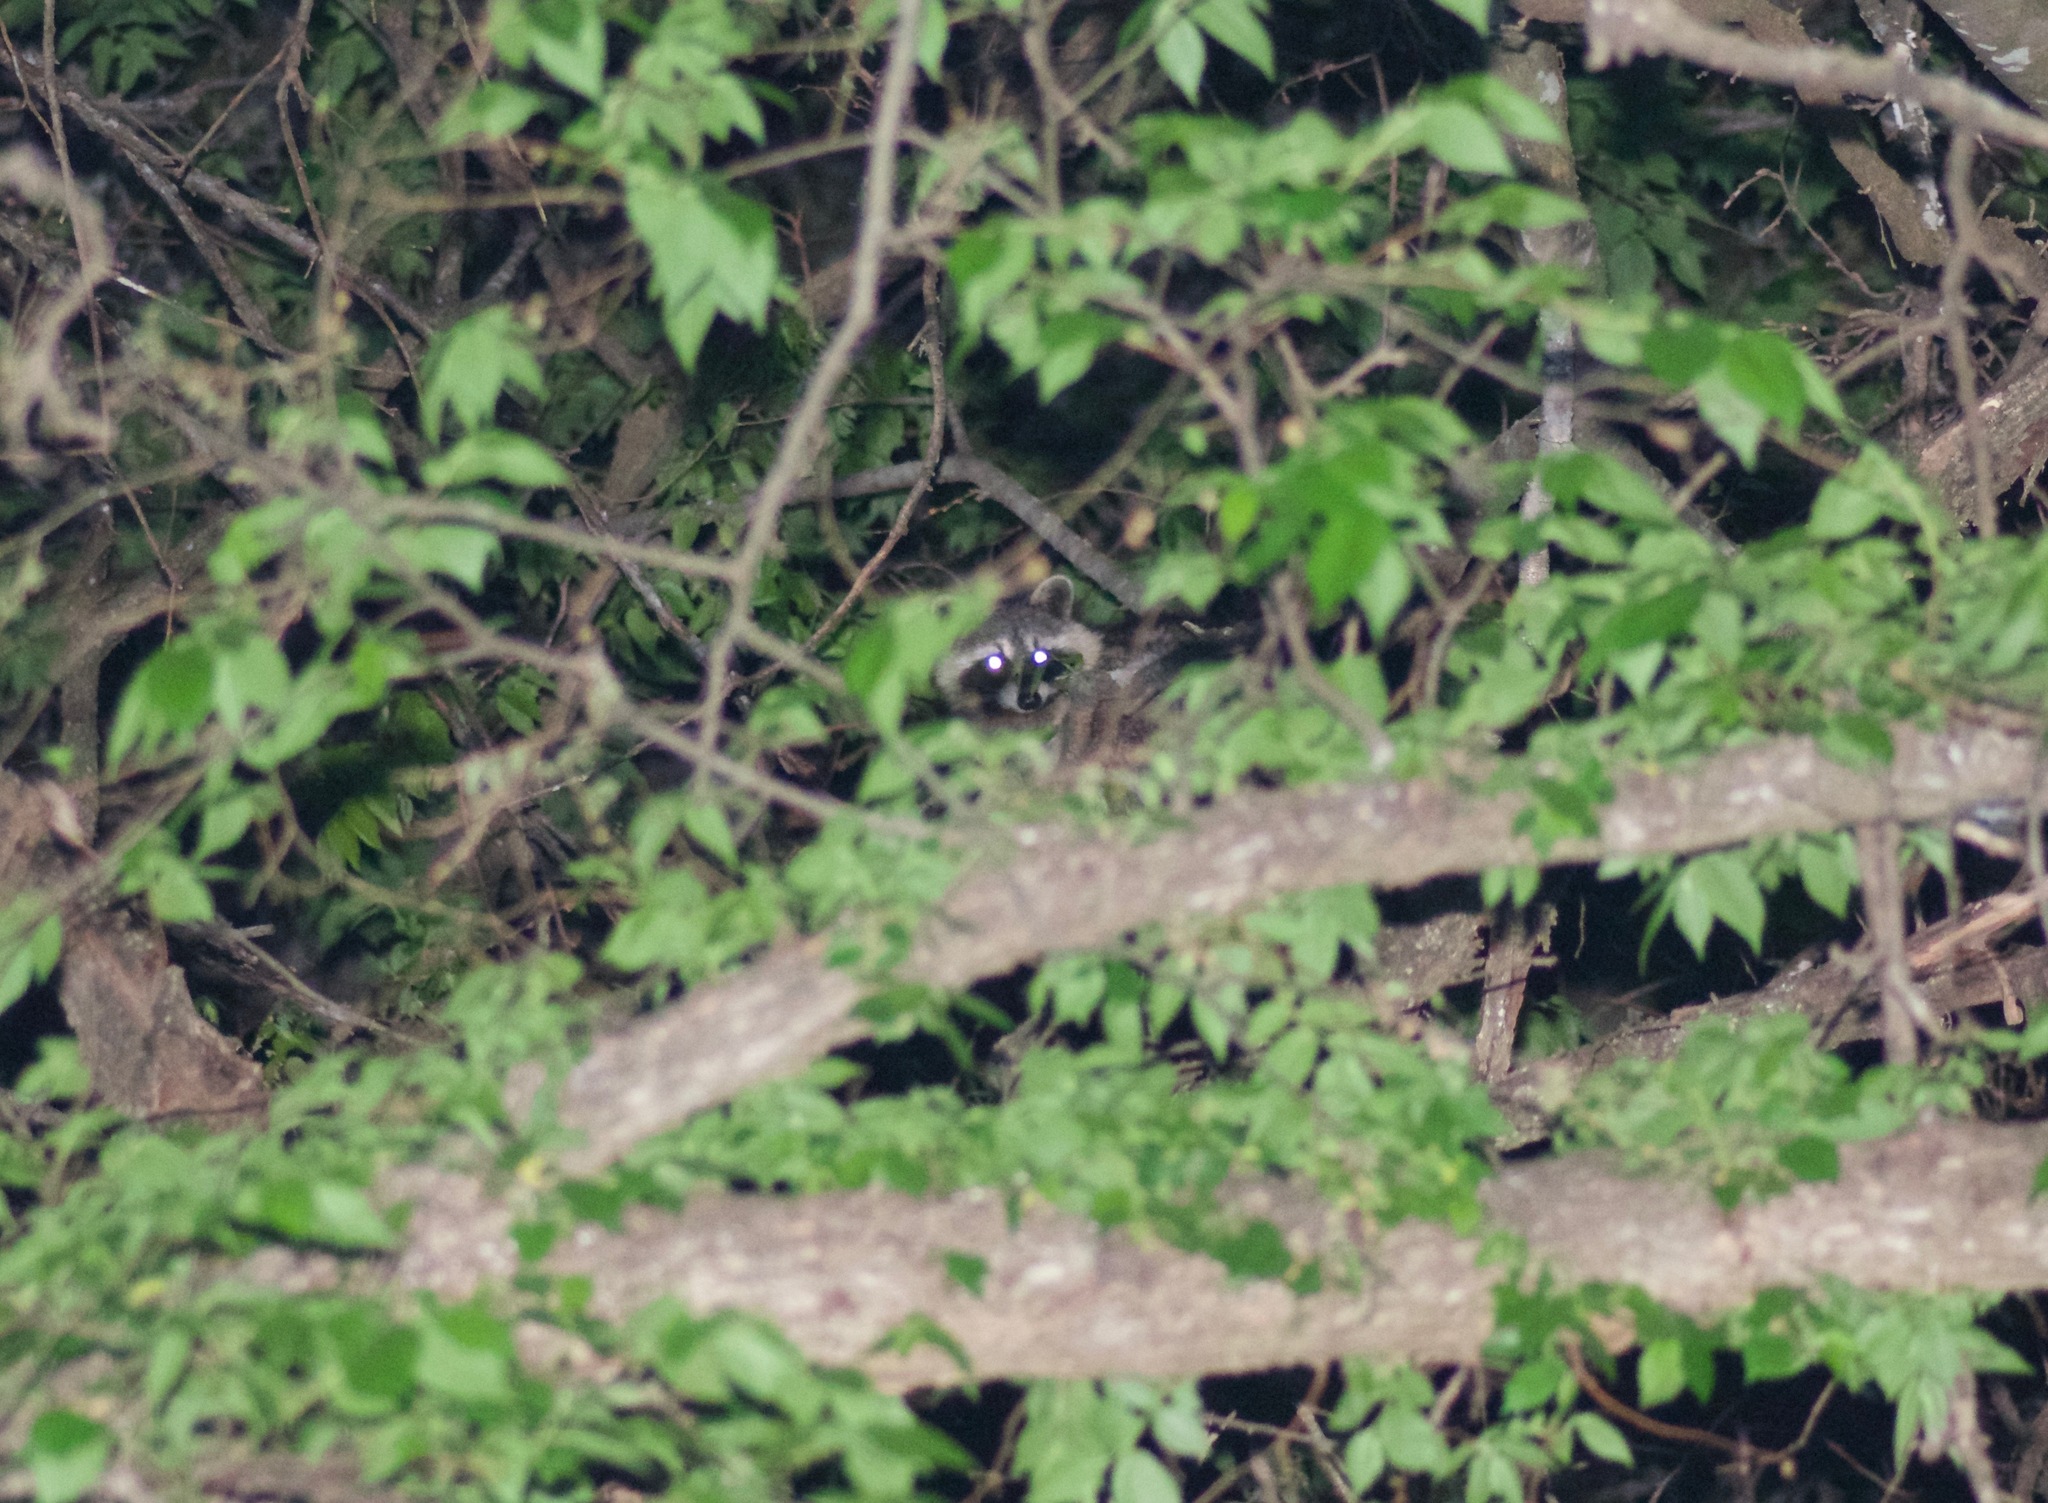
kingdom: Animalia
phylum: Chordata
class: Mammalia
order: Carnivora
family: Procyonidae
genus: Procyon
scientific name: Procyon lotor
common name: Raccoon
